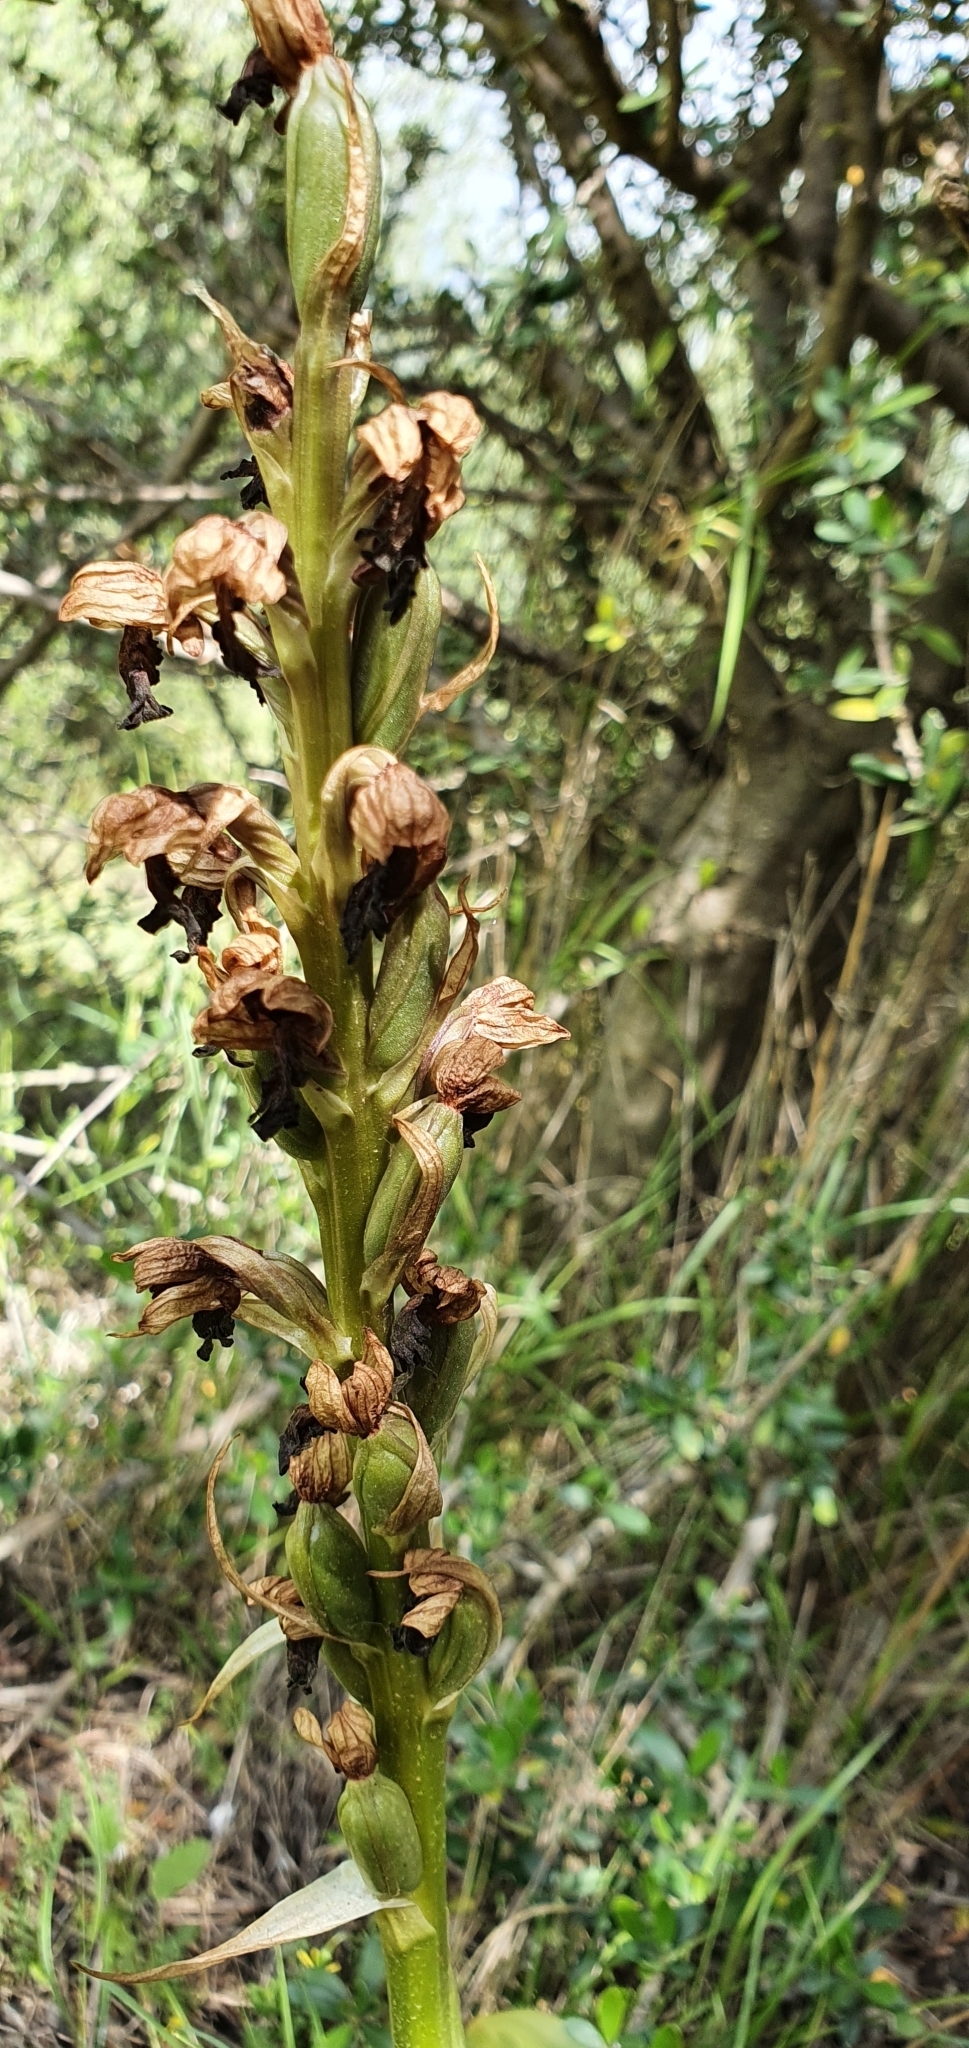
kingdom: Plantae
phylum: Tracheophyta
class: Liliopsida
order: Asparagales
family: Orchidaceae
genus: Himantoglossum
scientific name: Himantoglossum robertianum
